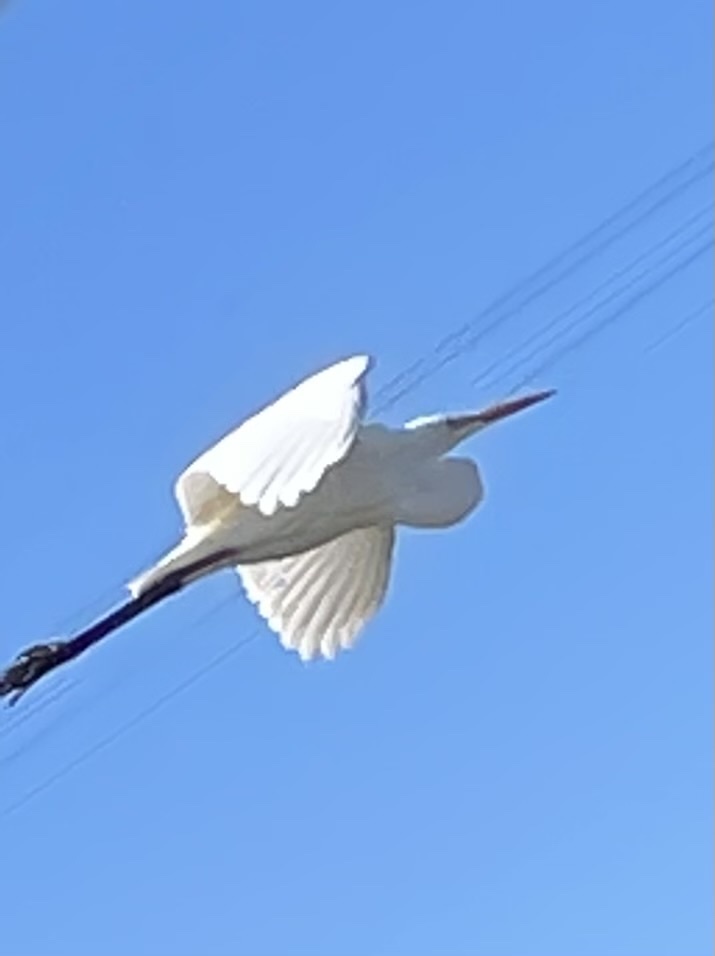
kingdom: Animalia
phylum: Chordata
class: Aves
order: Pelecaniformes
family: Ardeidae
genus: Ardea
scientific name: Ardea alba
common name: Great egret
